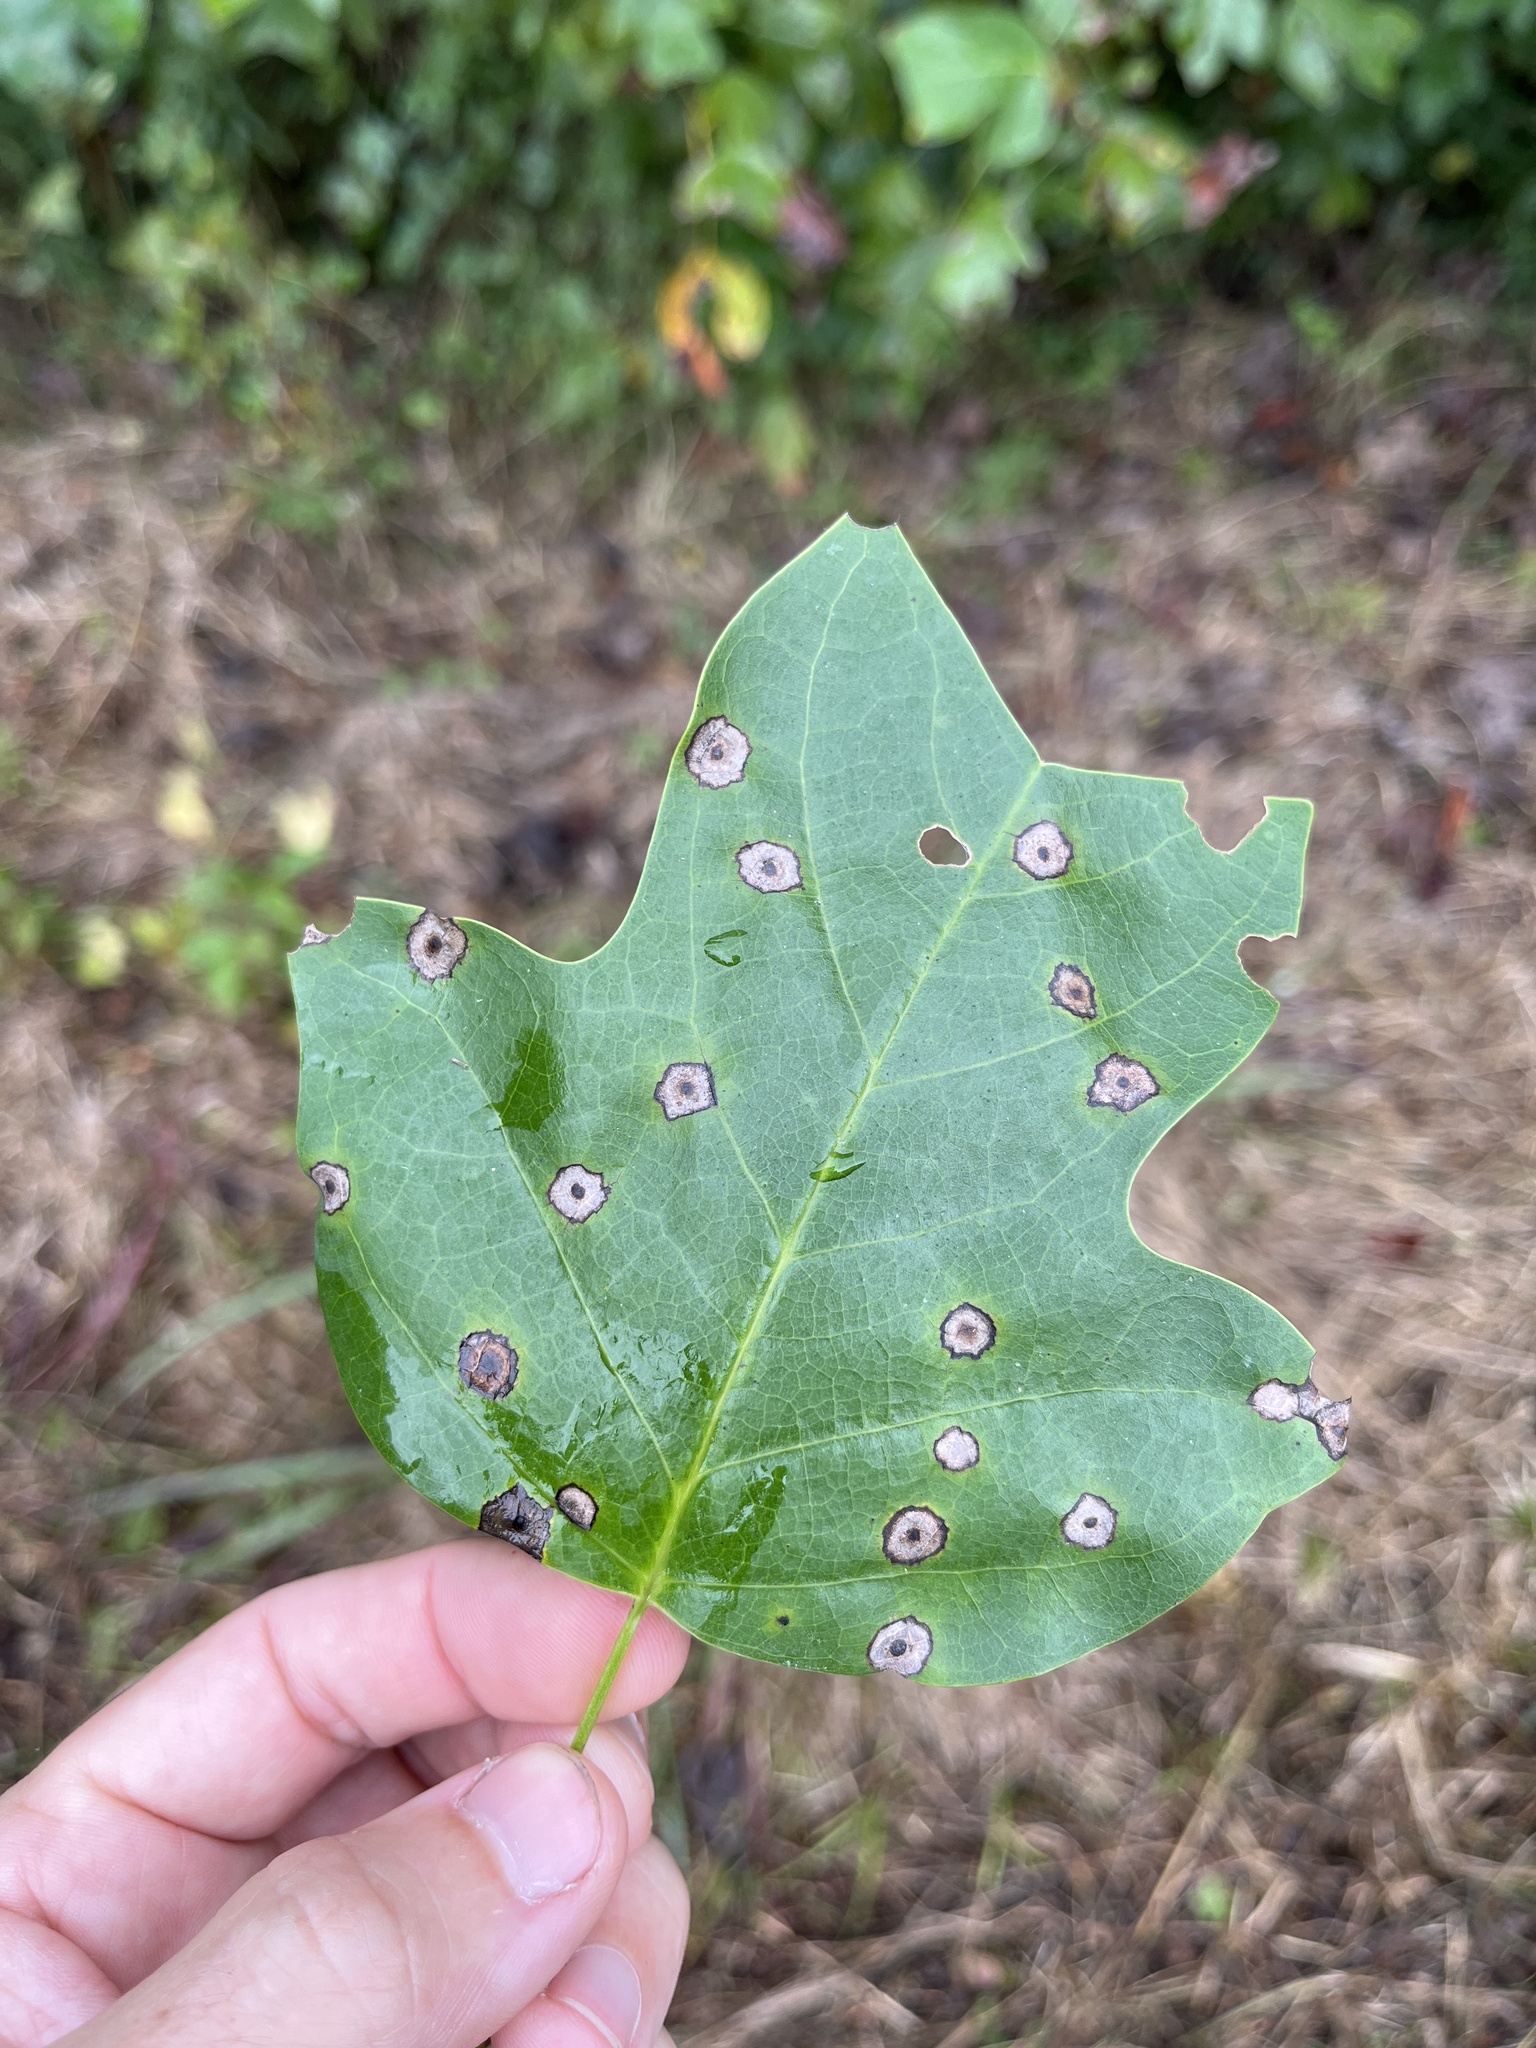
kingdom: Plantae
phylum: Tracheophyta
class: Magnoliopsida
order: Magnoliales
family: Magnoliaceae
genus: Liriodendron
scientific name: Liriodendron tulipifera
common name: Tulip tree
